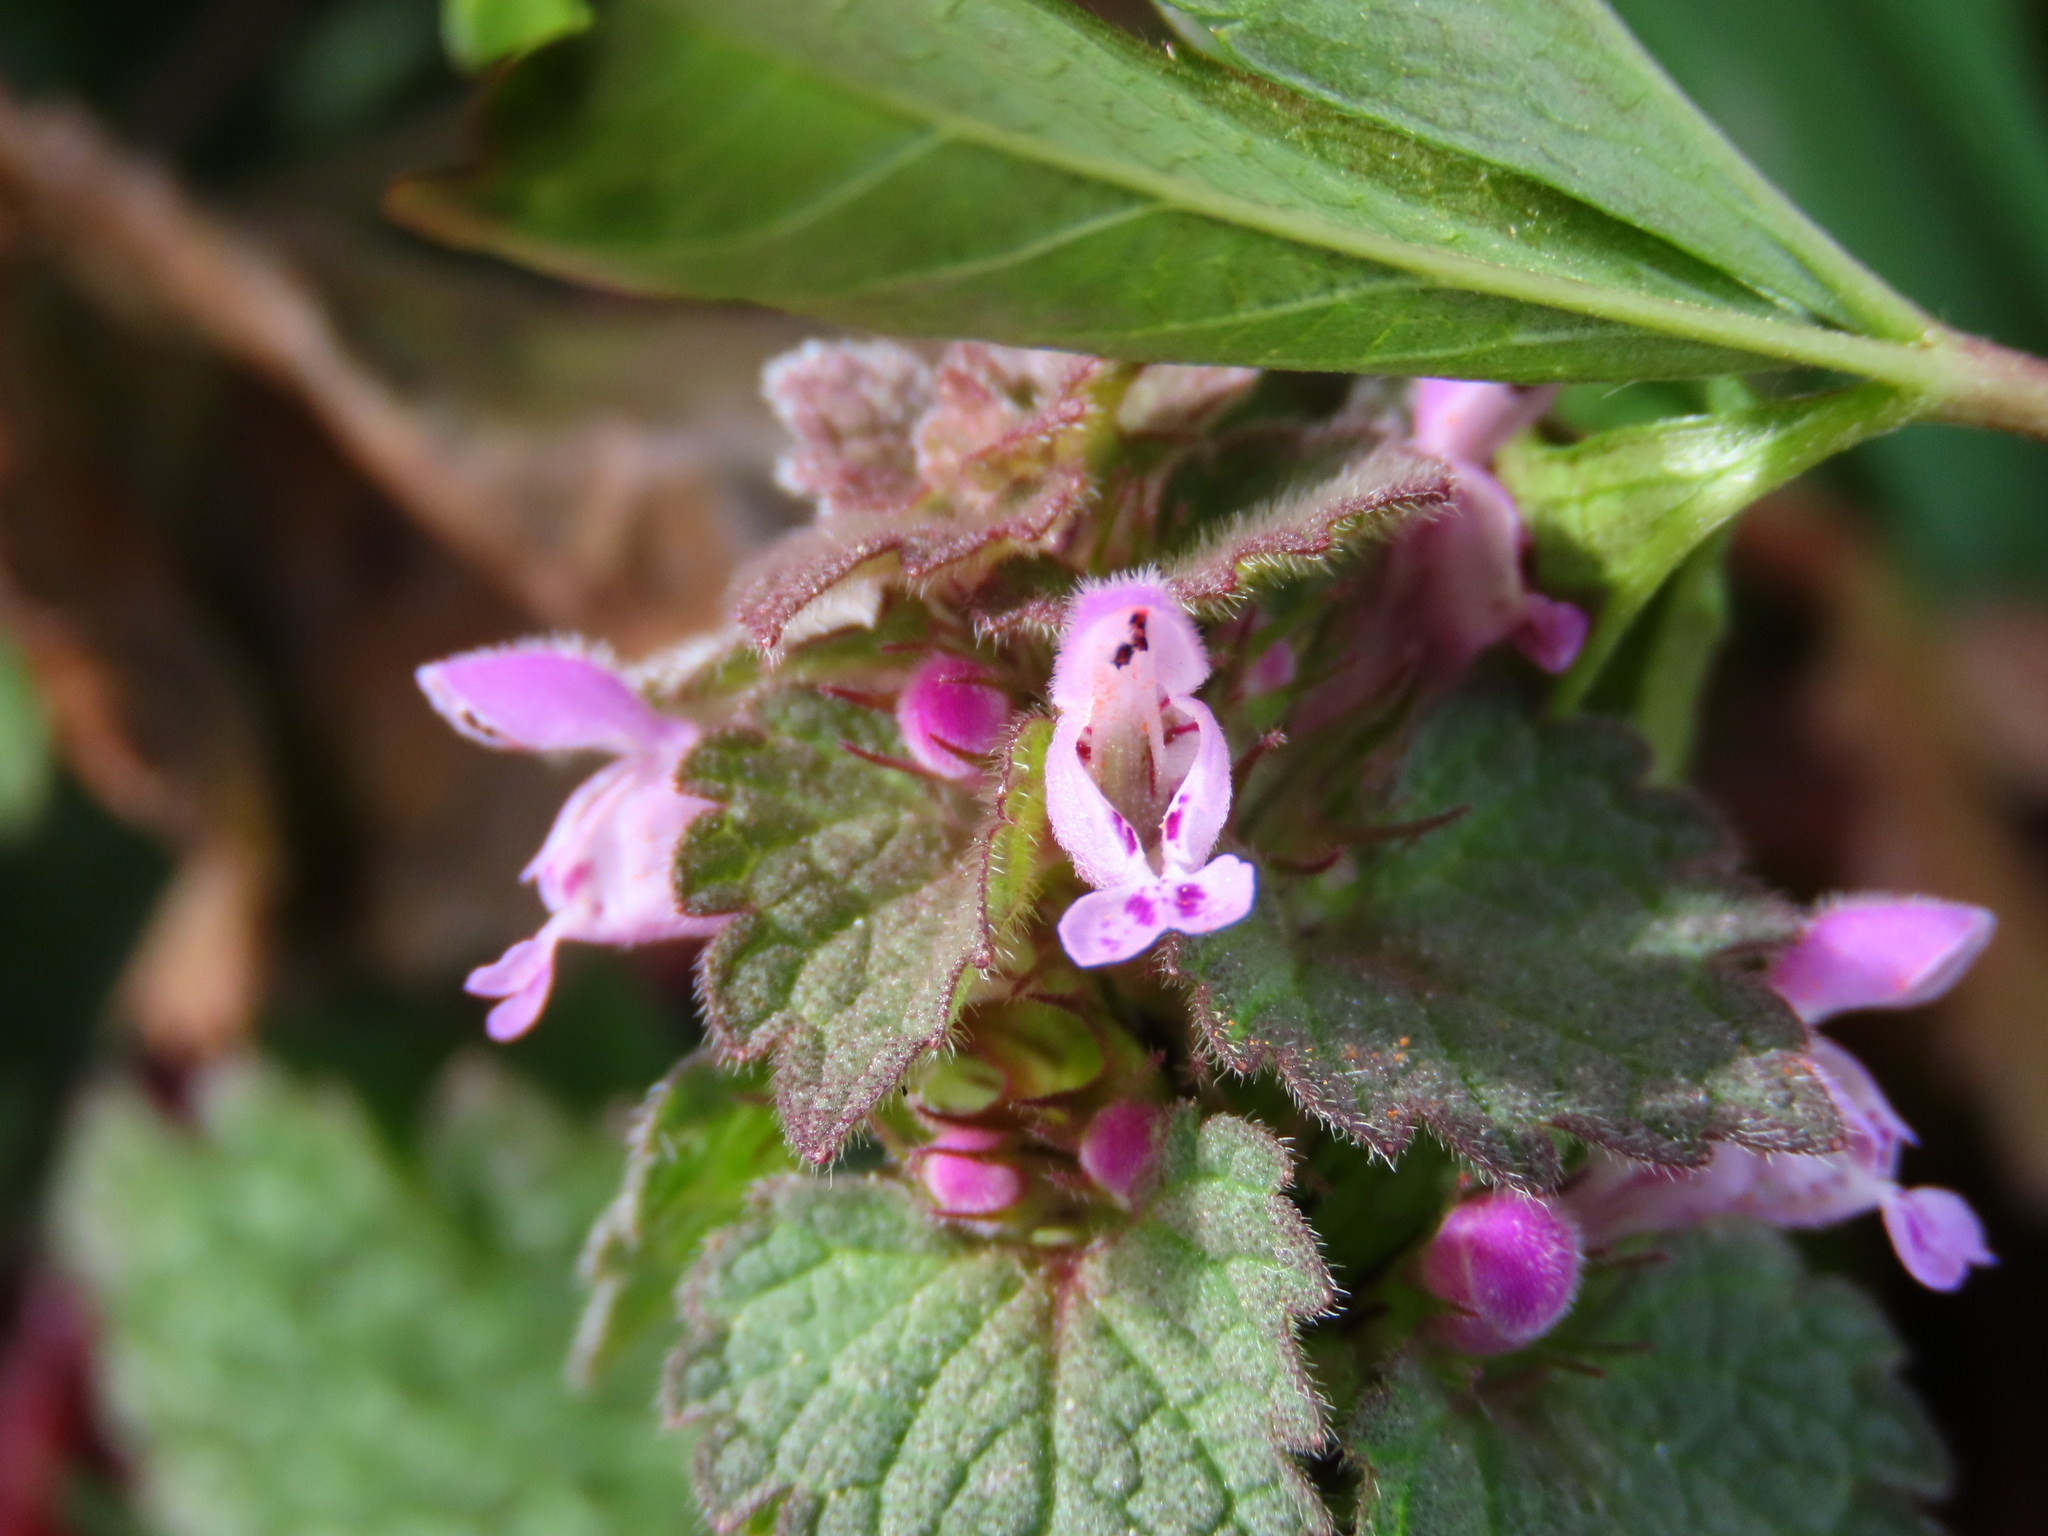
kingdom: Plantae
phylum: Tracheophyta
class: Magnoliopsida
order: Lamiales
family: Lamiaceae
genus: Lamium
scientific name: Lamium purpureum
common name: Red dead-nettle
